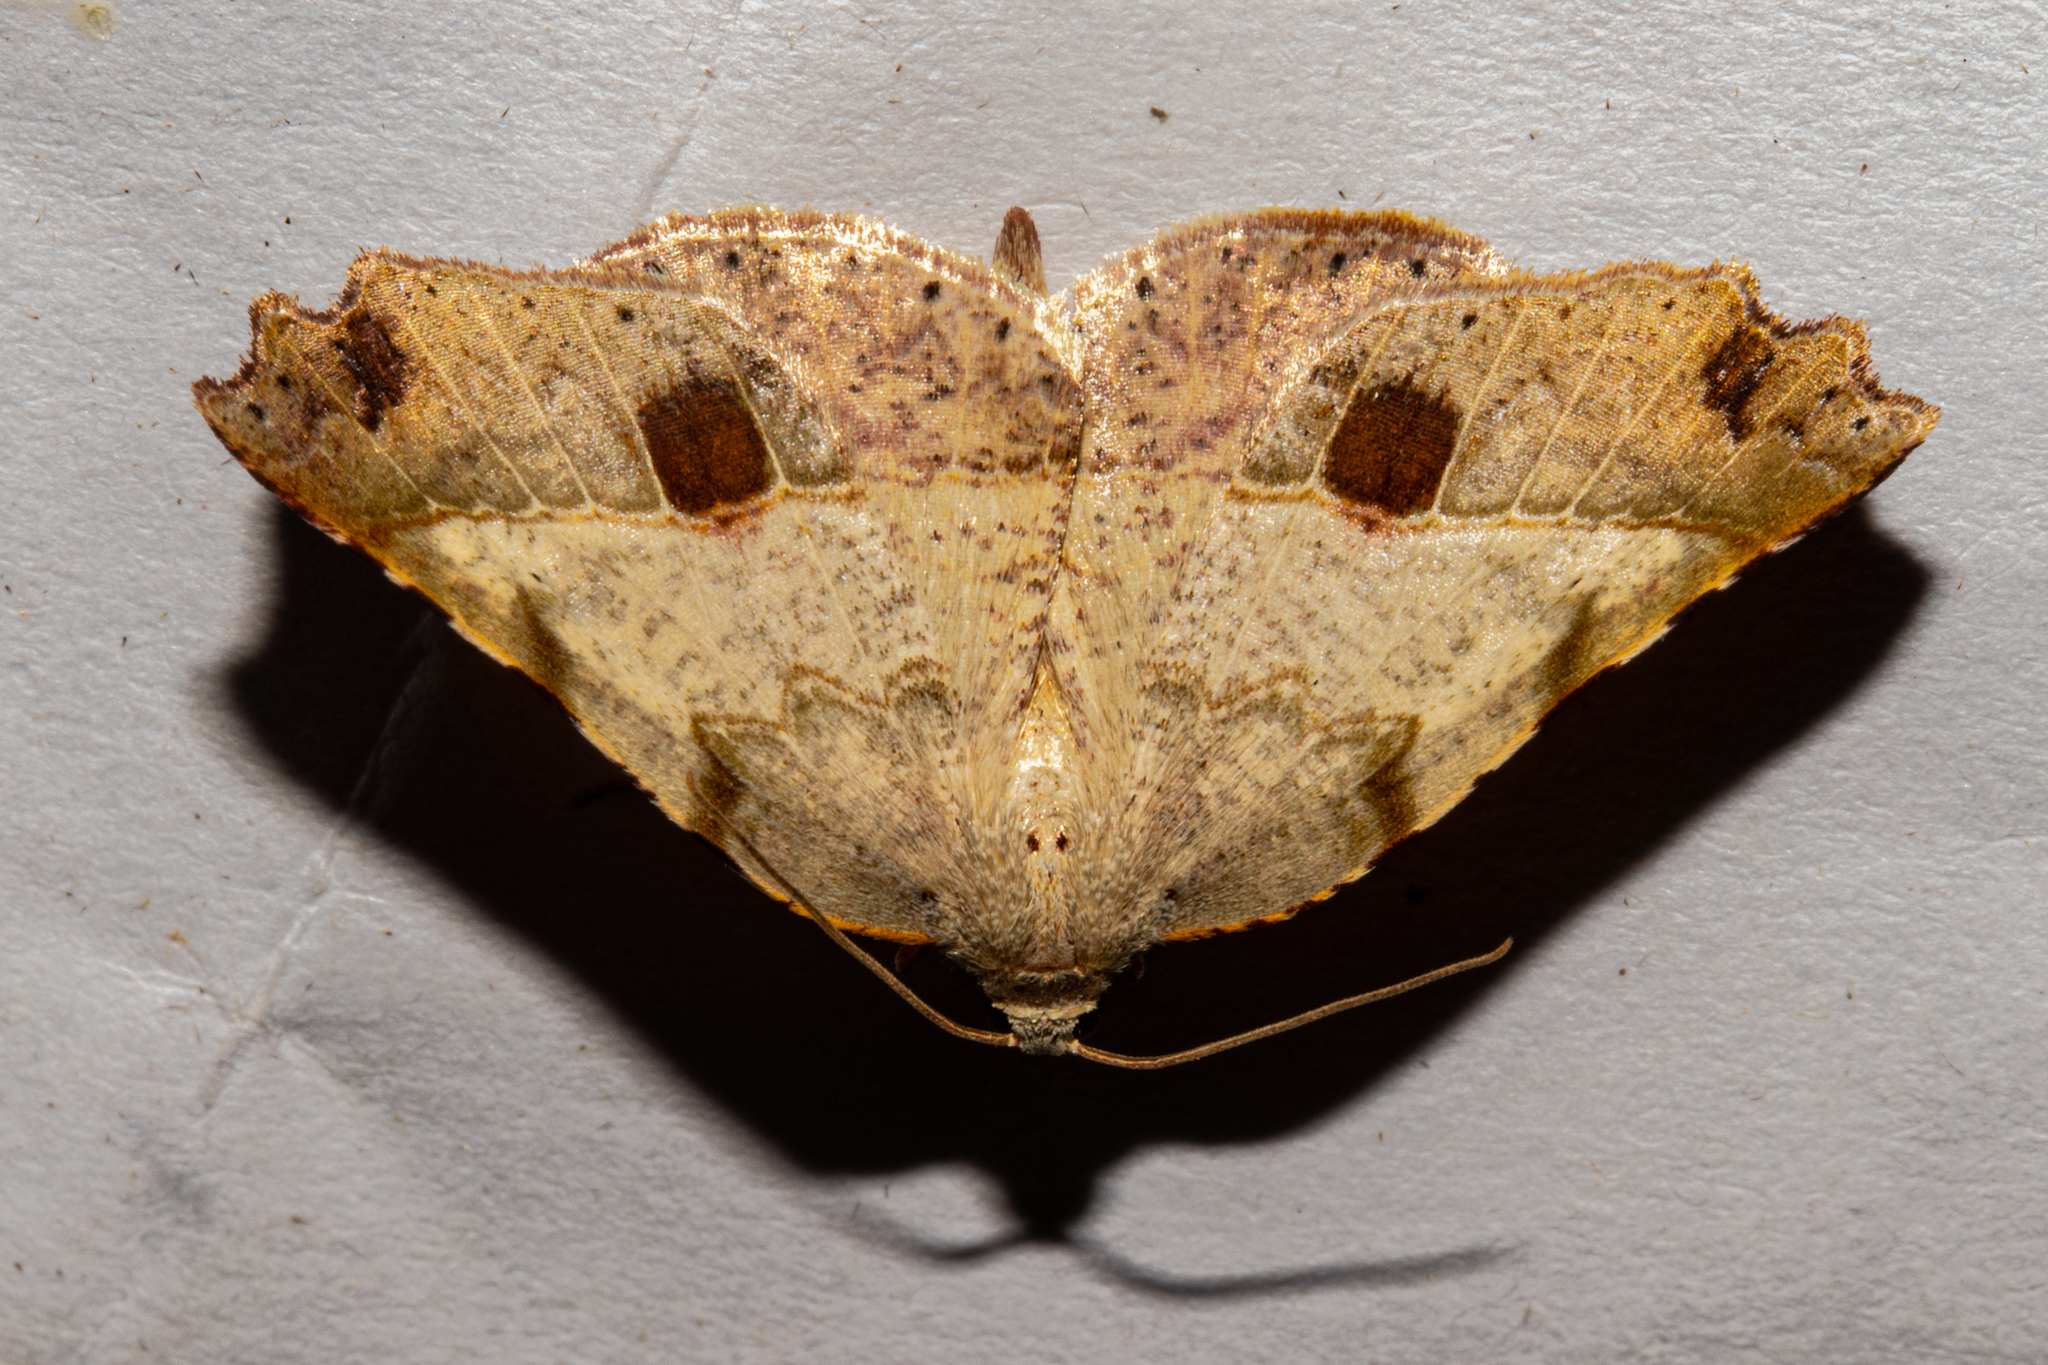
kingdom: Animalia
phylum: Arthropoda
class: Insecta
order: Lepidoptera
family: Geometridae
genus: Ischalis
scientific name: Ischalis gallaria
